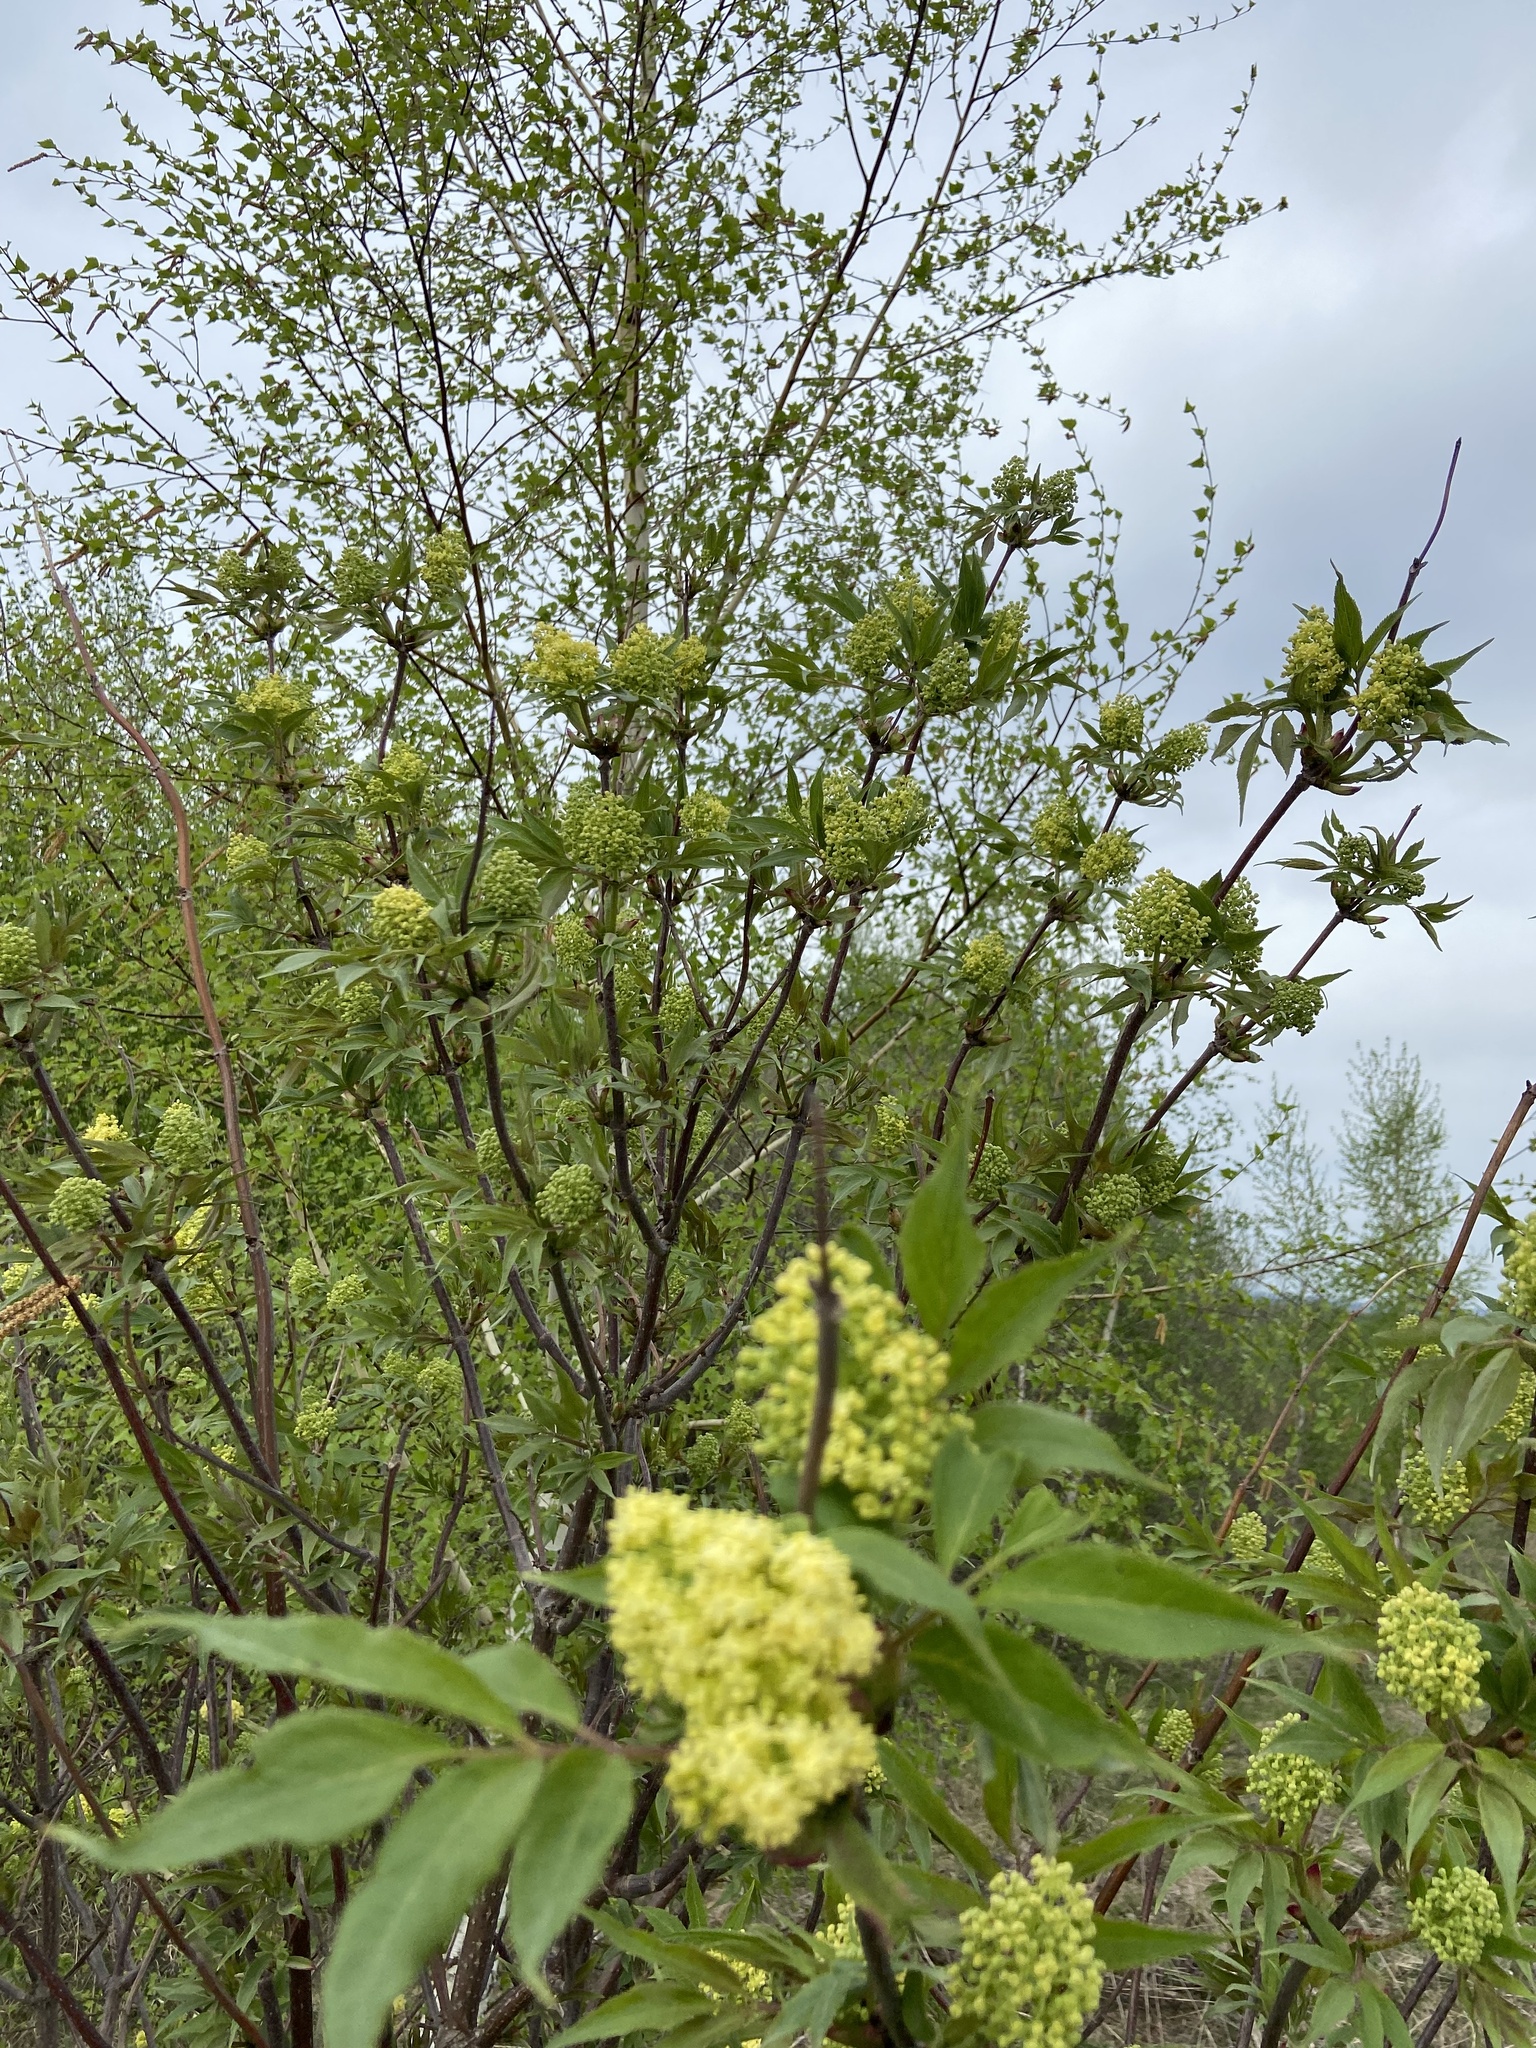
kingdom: Plantae
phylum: Tracheophyta
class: Magnoliopsida
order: Dipsacales
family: Viburnaceae
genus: Sambucus
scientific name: Sambucus racemosa
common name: Red-berried elder
